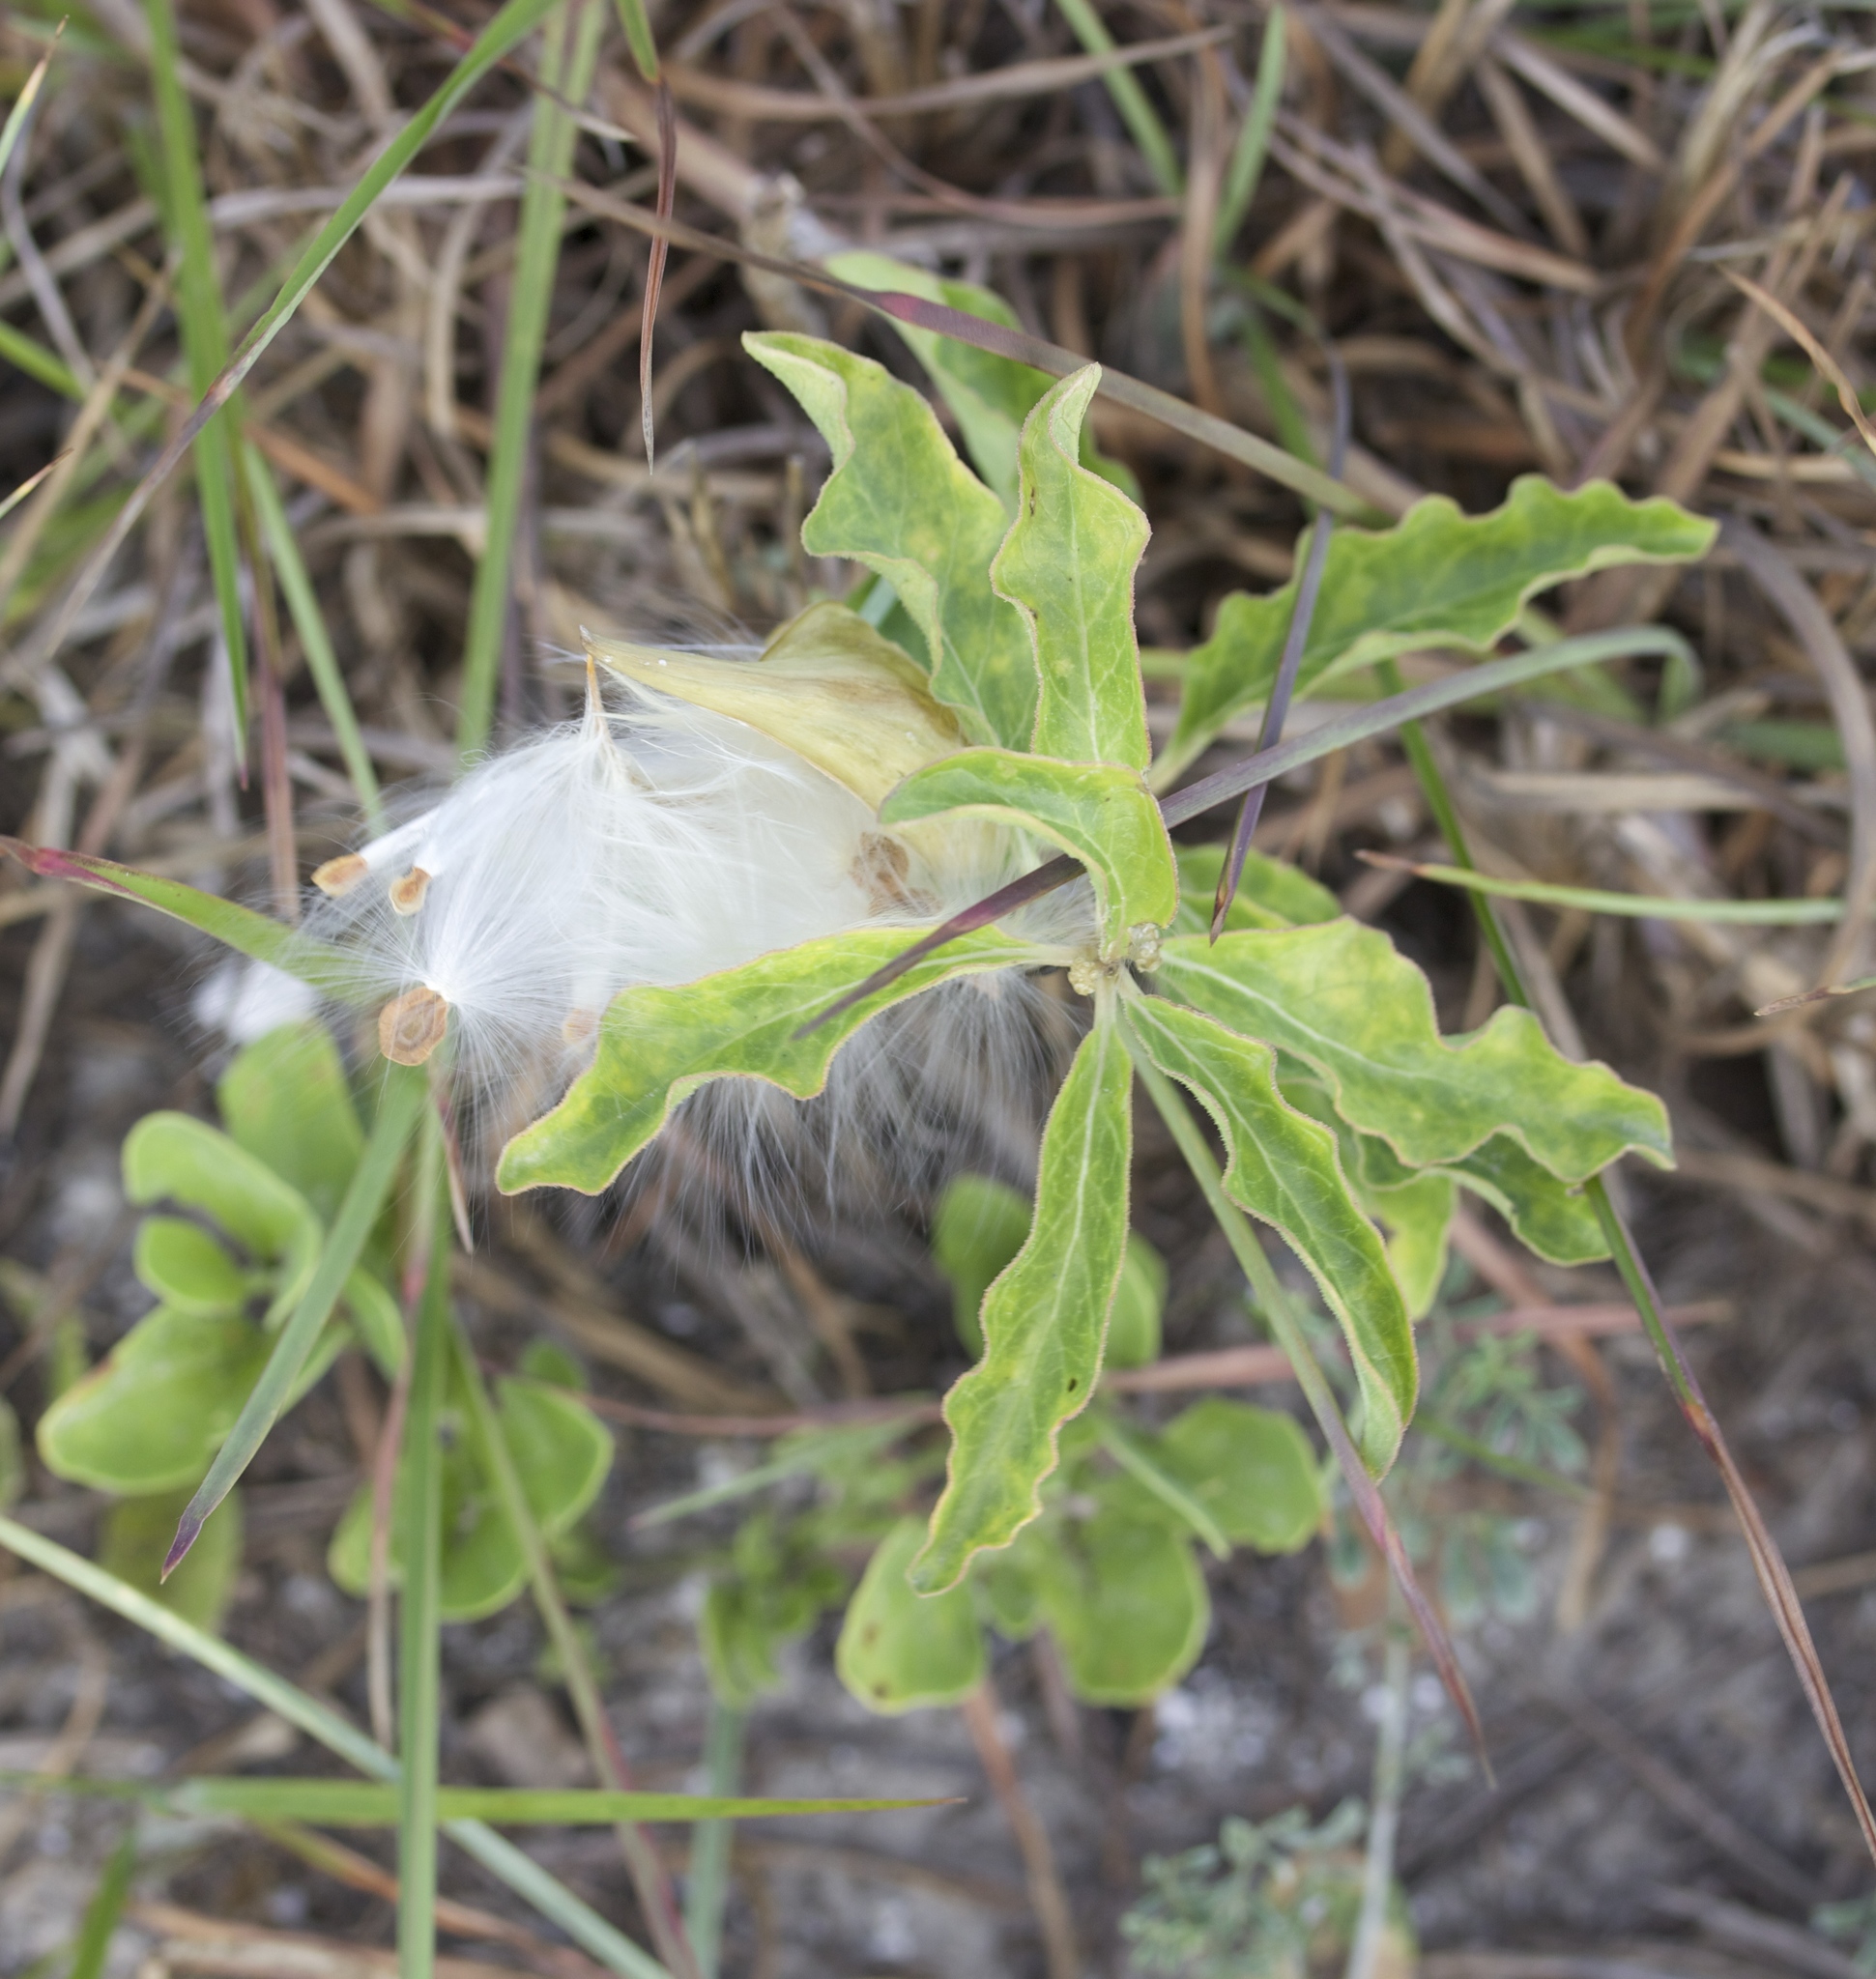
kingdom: Plantae
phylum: Tracheophyta
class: Magnoliopsida
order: Gentianales
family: Apocynaceae
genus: Asclepias
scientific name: Asclepias oenotheroides
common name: Zizotes milkweed
